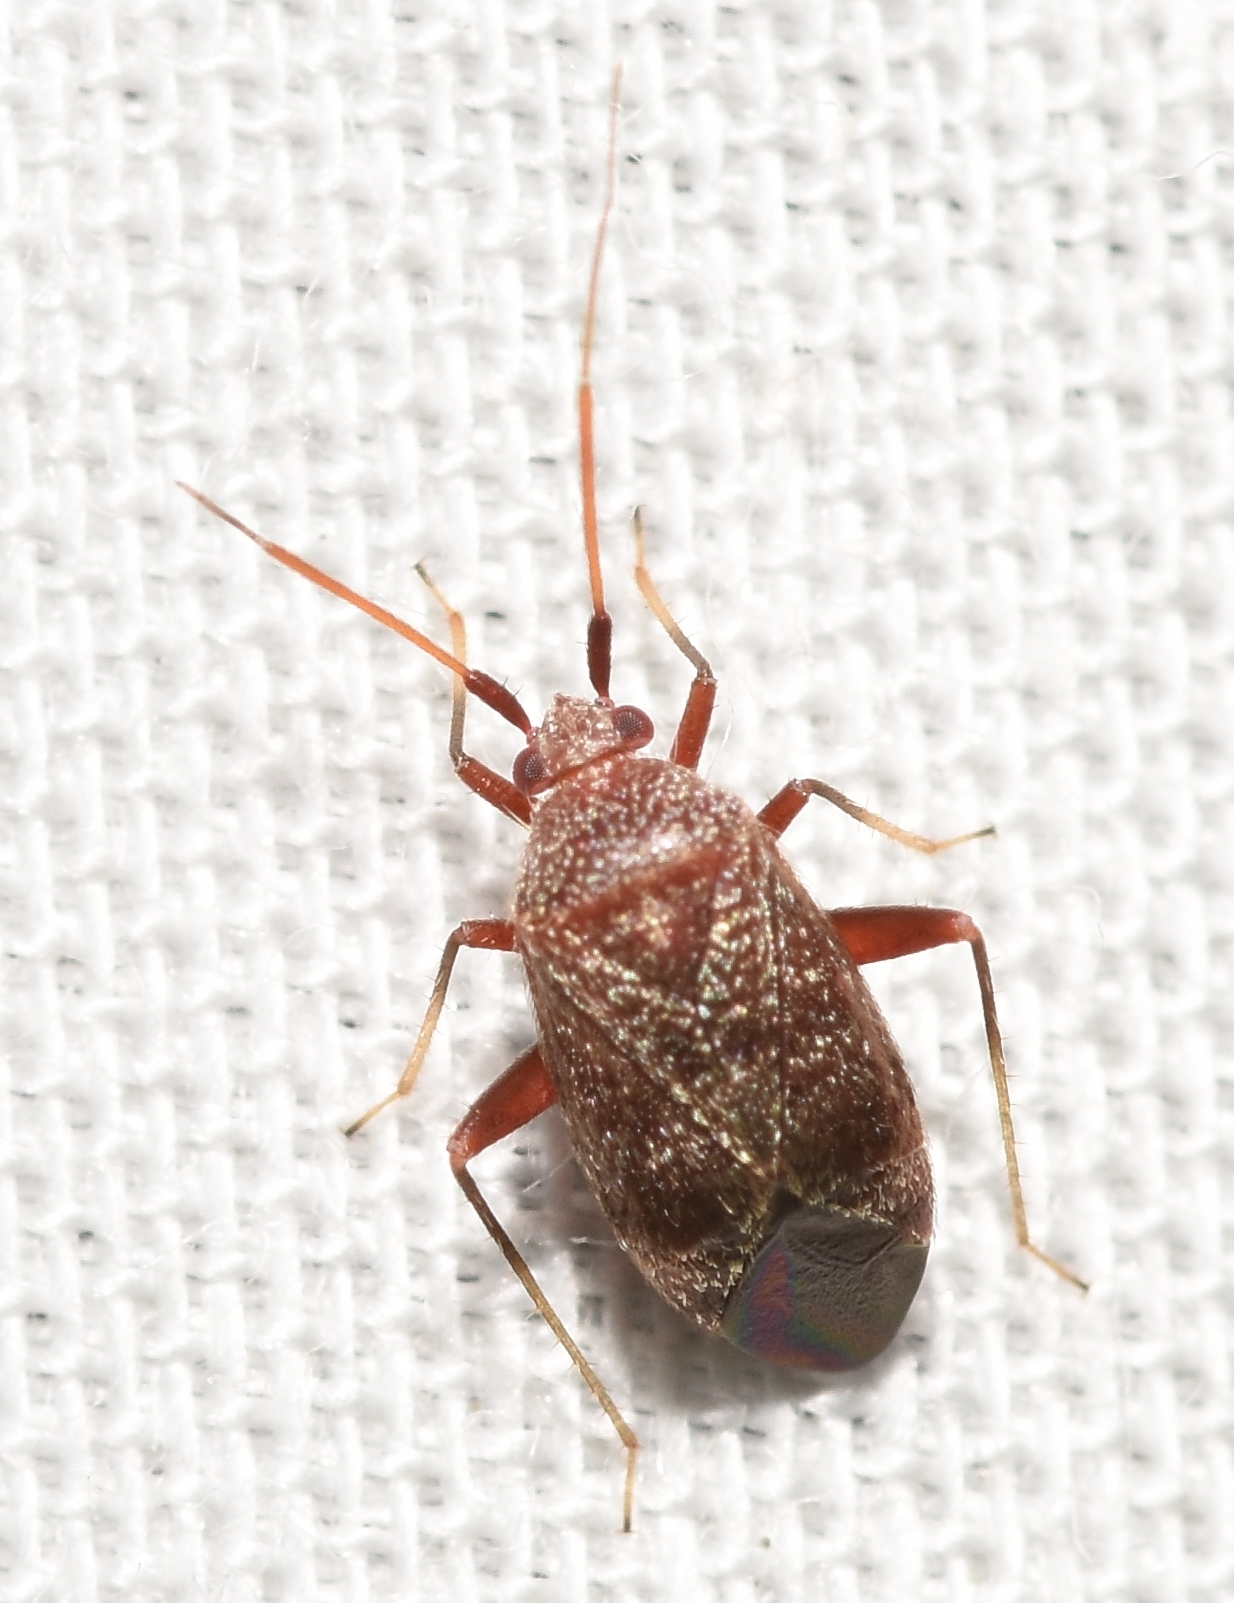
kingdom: Animalia
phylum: Arthropoda
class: Insecta
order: Hemiptera
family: Miridae
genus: Texocoris
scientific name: Texocoris nigrellus
